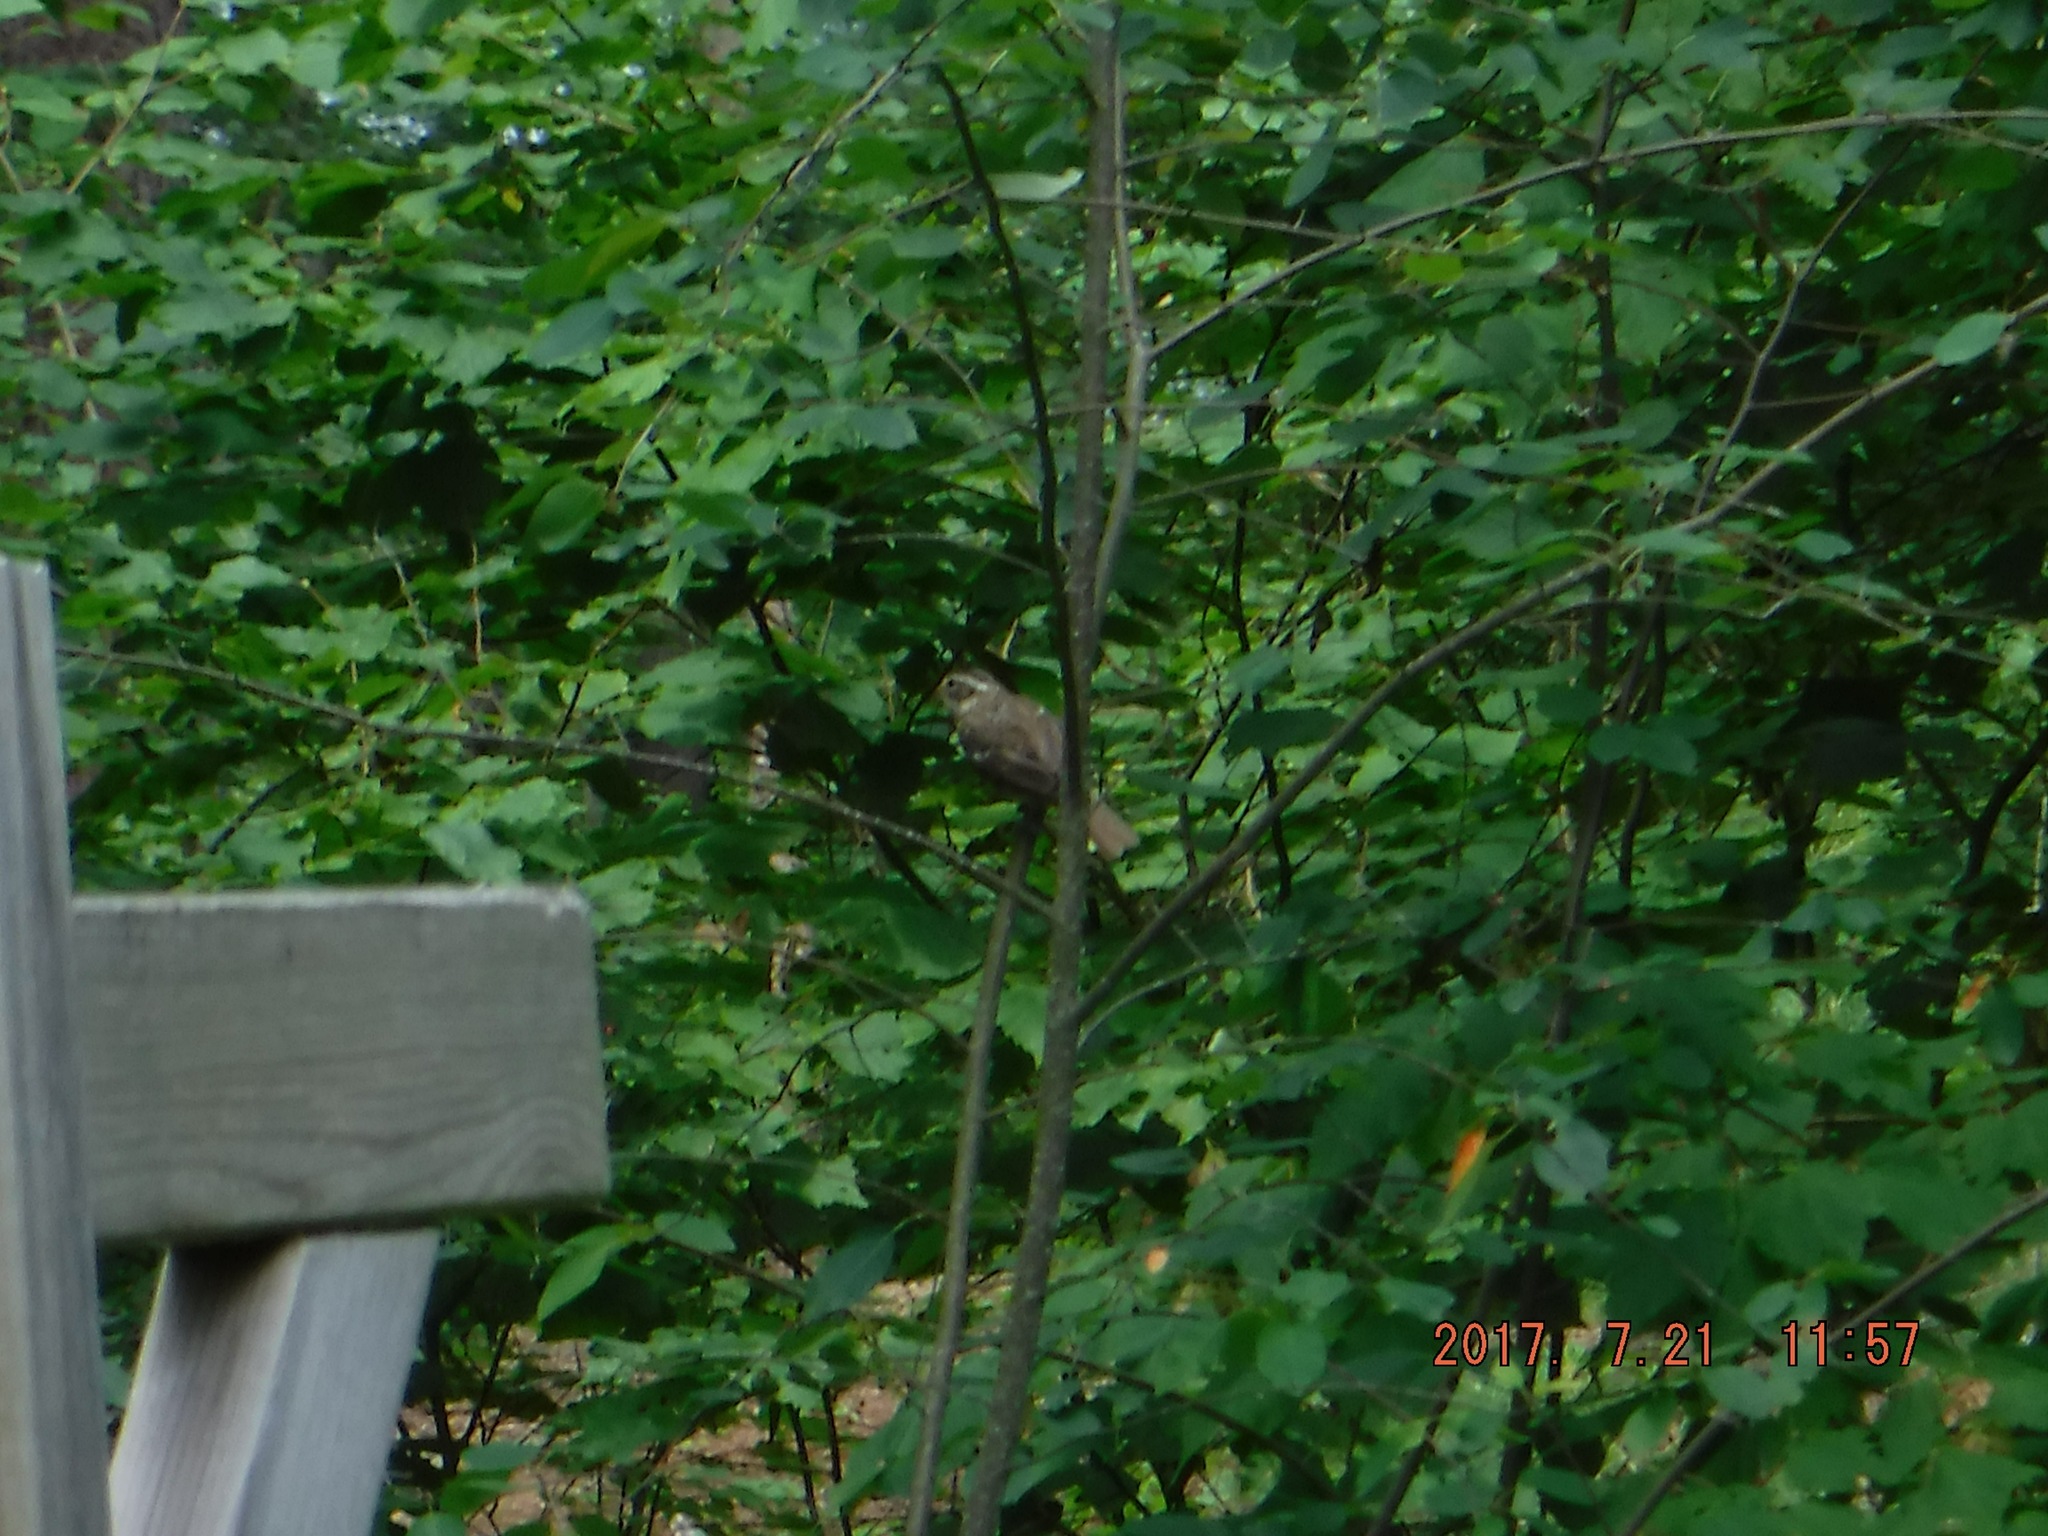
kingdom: Animalia
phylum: Chordata
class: Aves
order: Passeriformes
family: Cardinalidae
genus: Pheucticus
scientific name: Pheucticus ludovicianus
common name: Rose-breasted grosbeak
